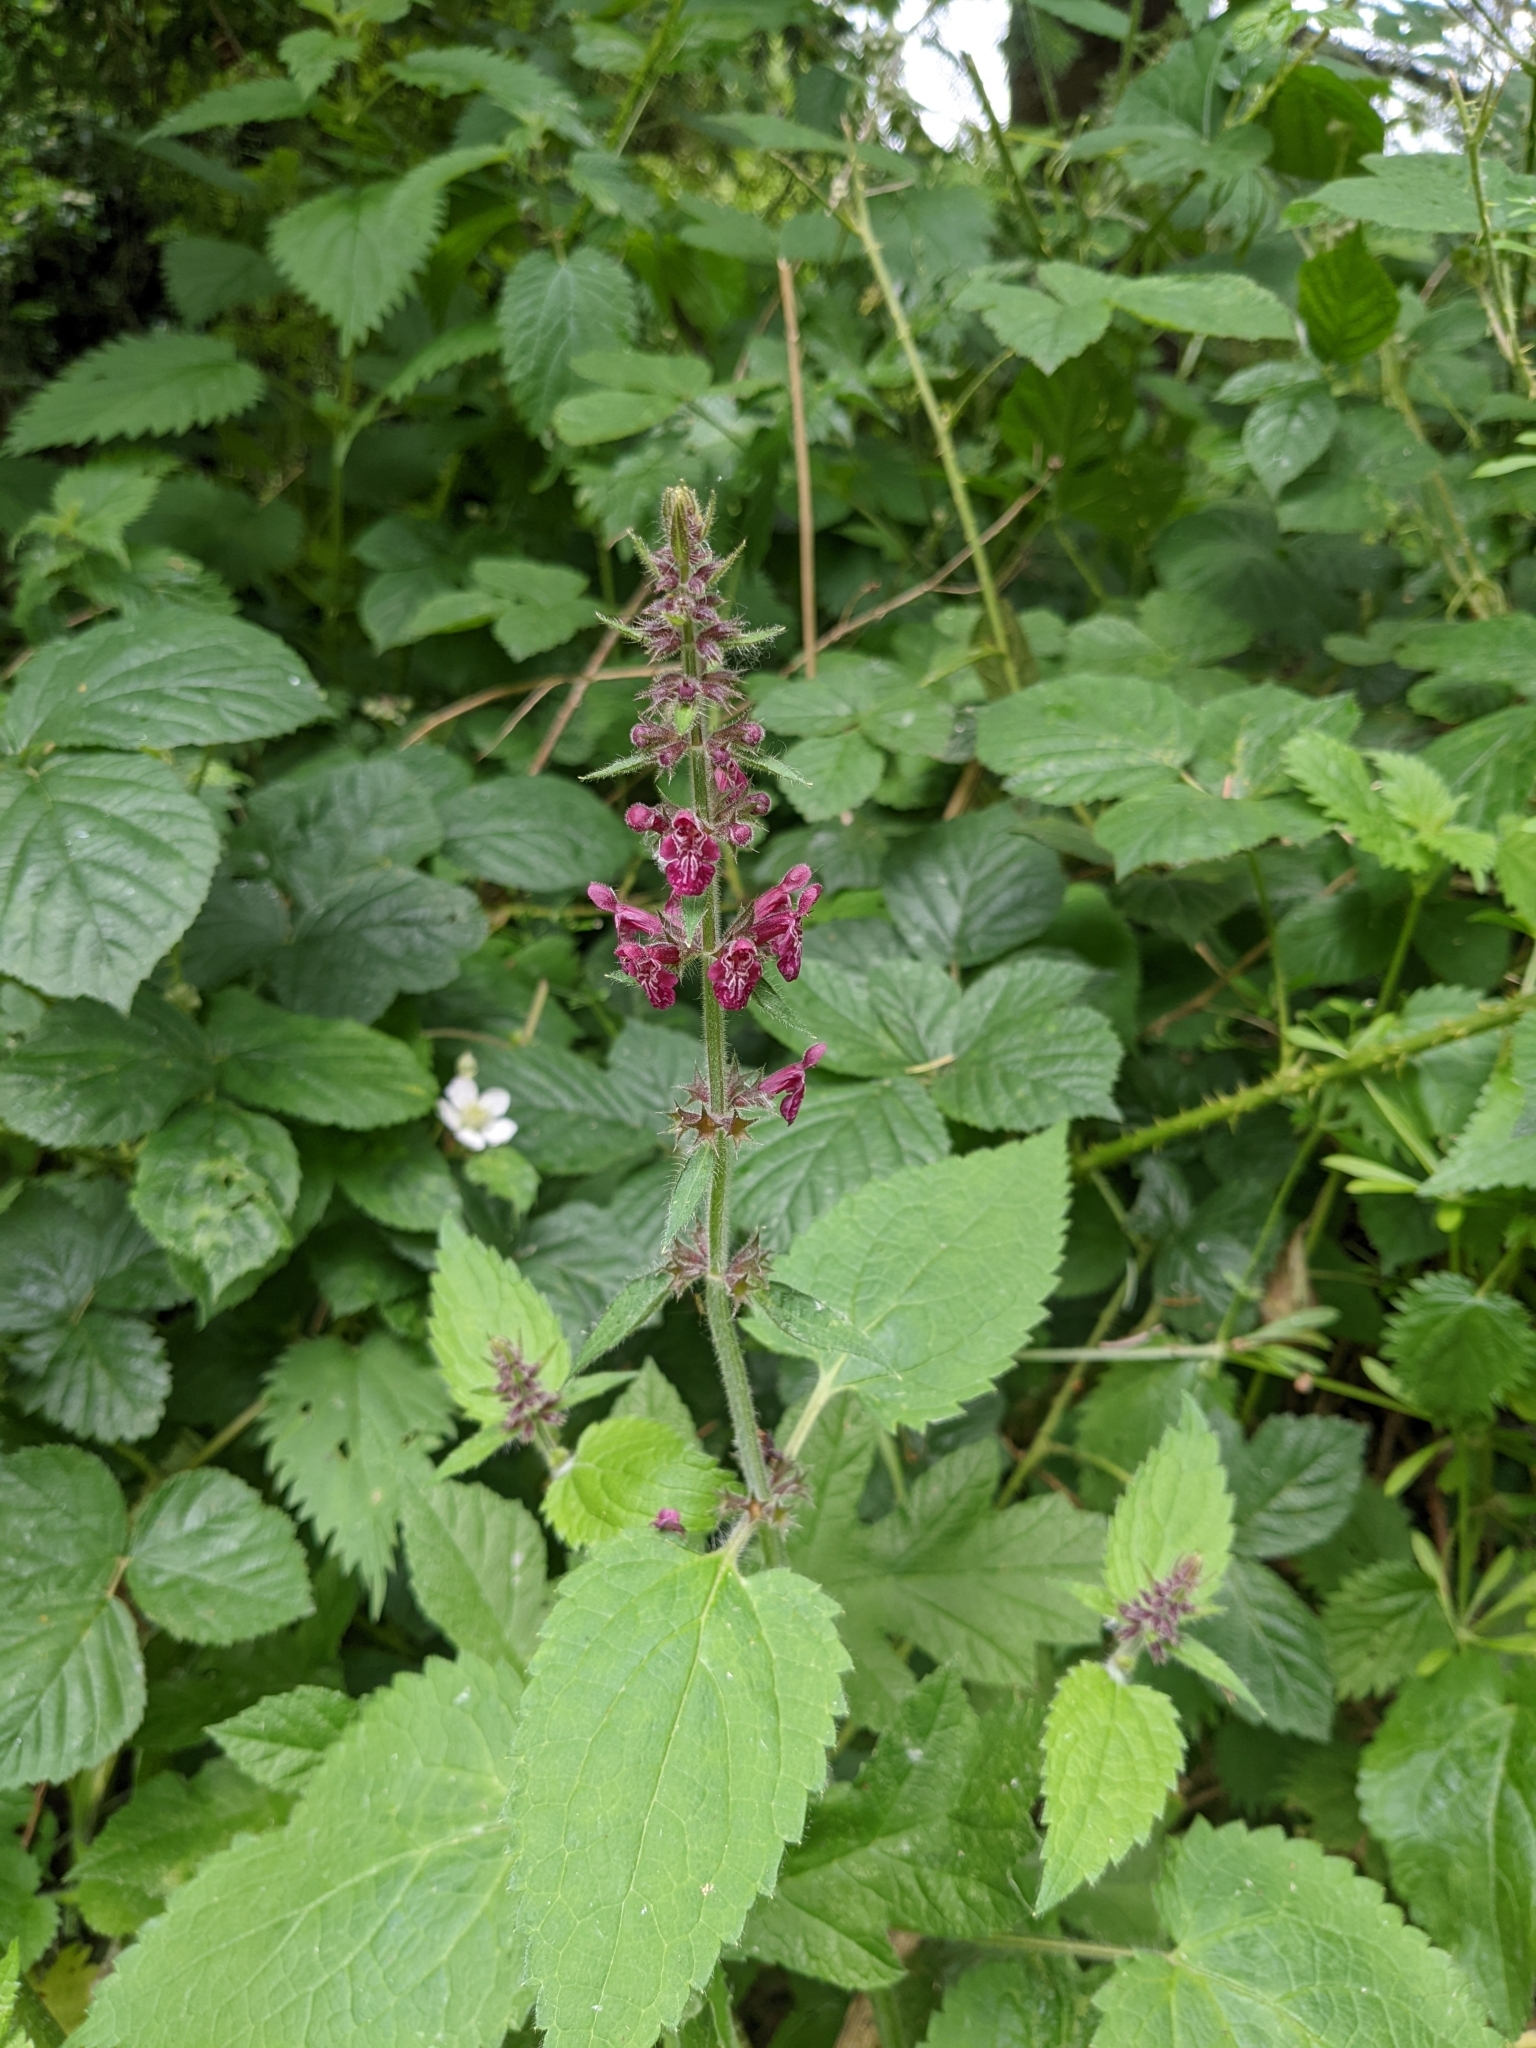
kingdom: Plantae
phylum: Tracheophyta
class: Magnoliopsida
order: Lamiales
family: Lamiaceae
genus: Stachys
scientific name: Stachys sylvatica
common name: Hedge woundwort
